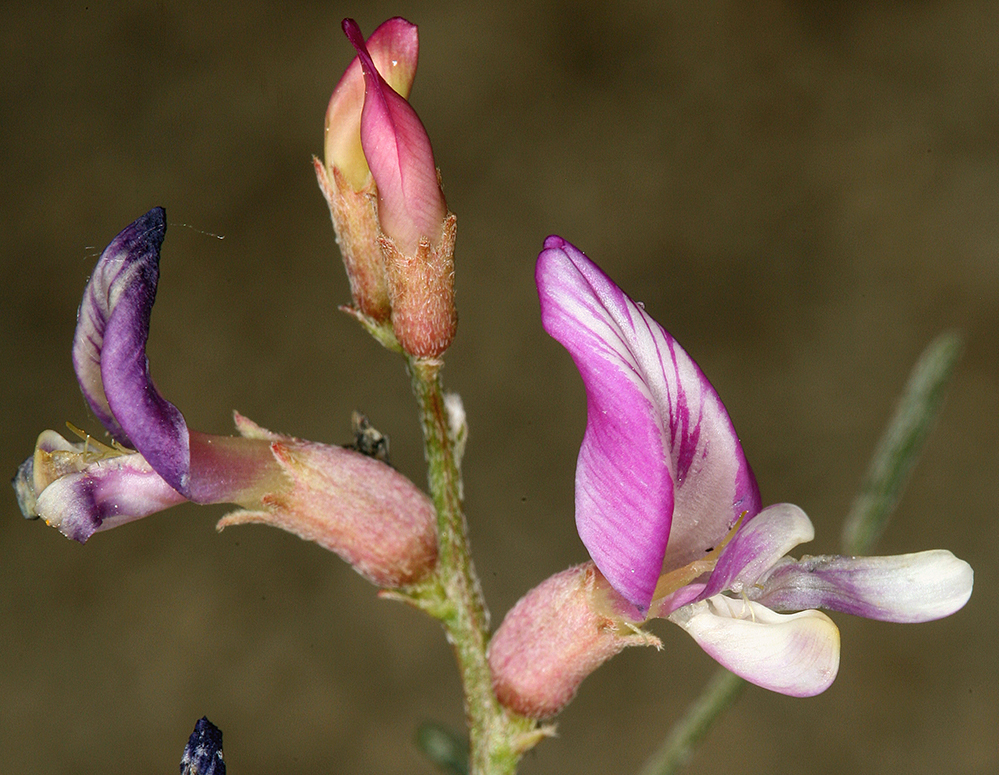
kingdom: Plantae
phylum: Tracheophyta
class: Magnoliopsida
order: Fabales
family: Fabaceae
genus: Astragalus
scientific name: Astragalus casei
